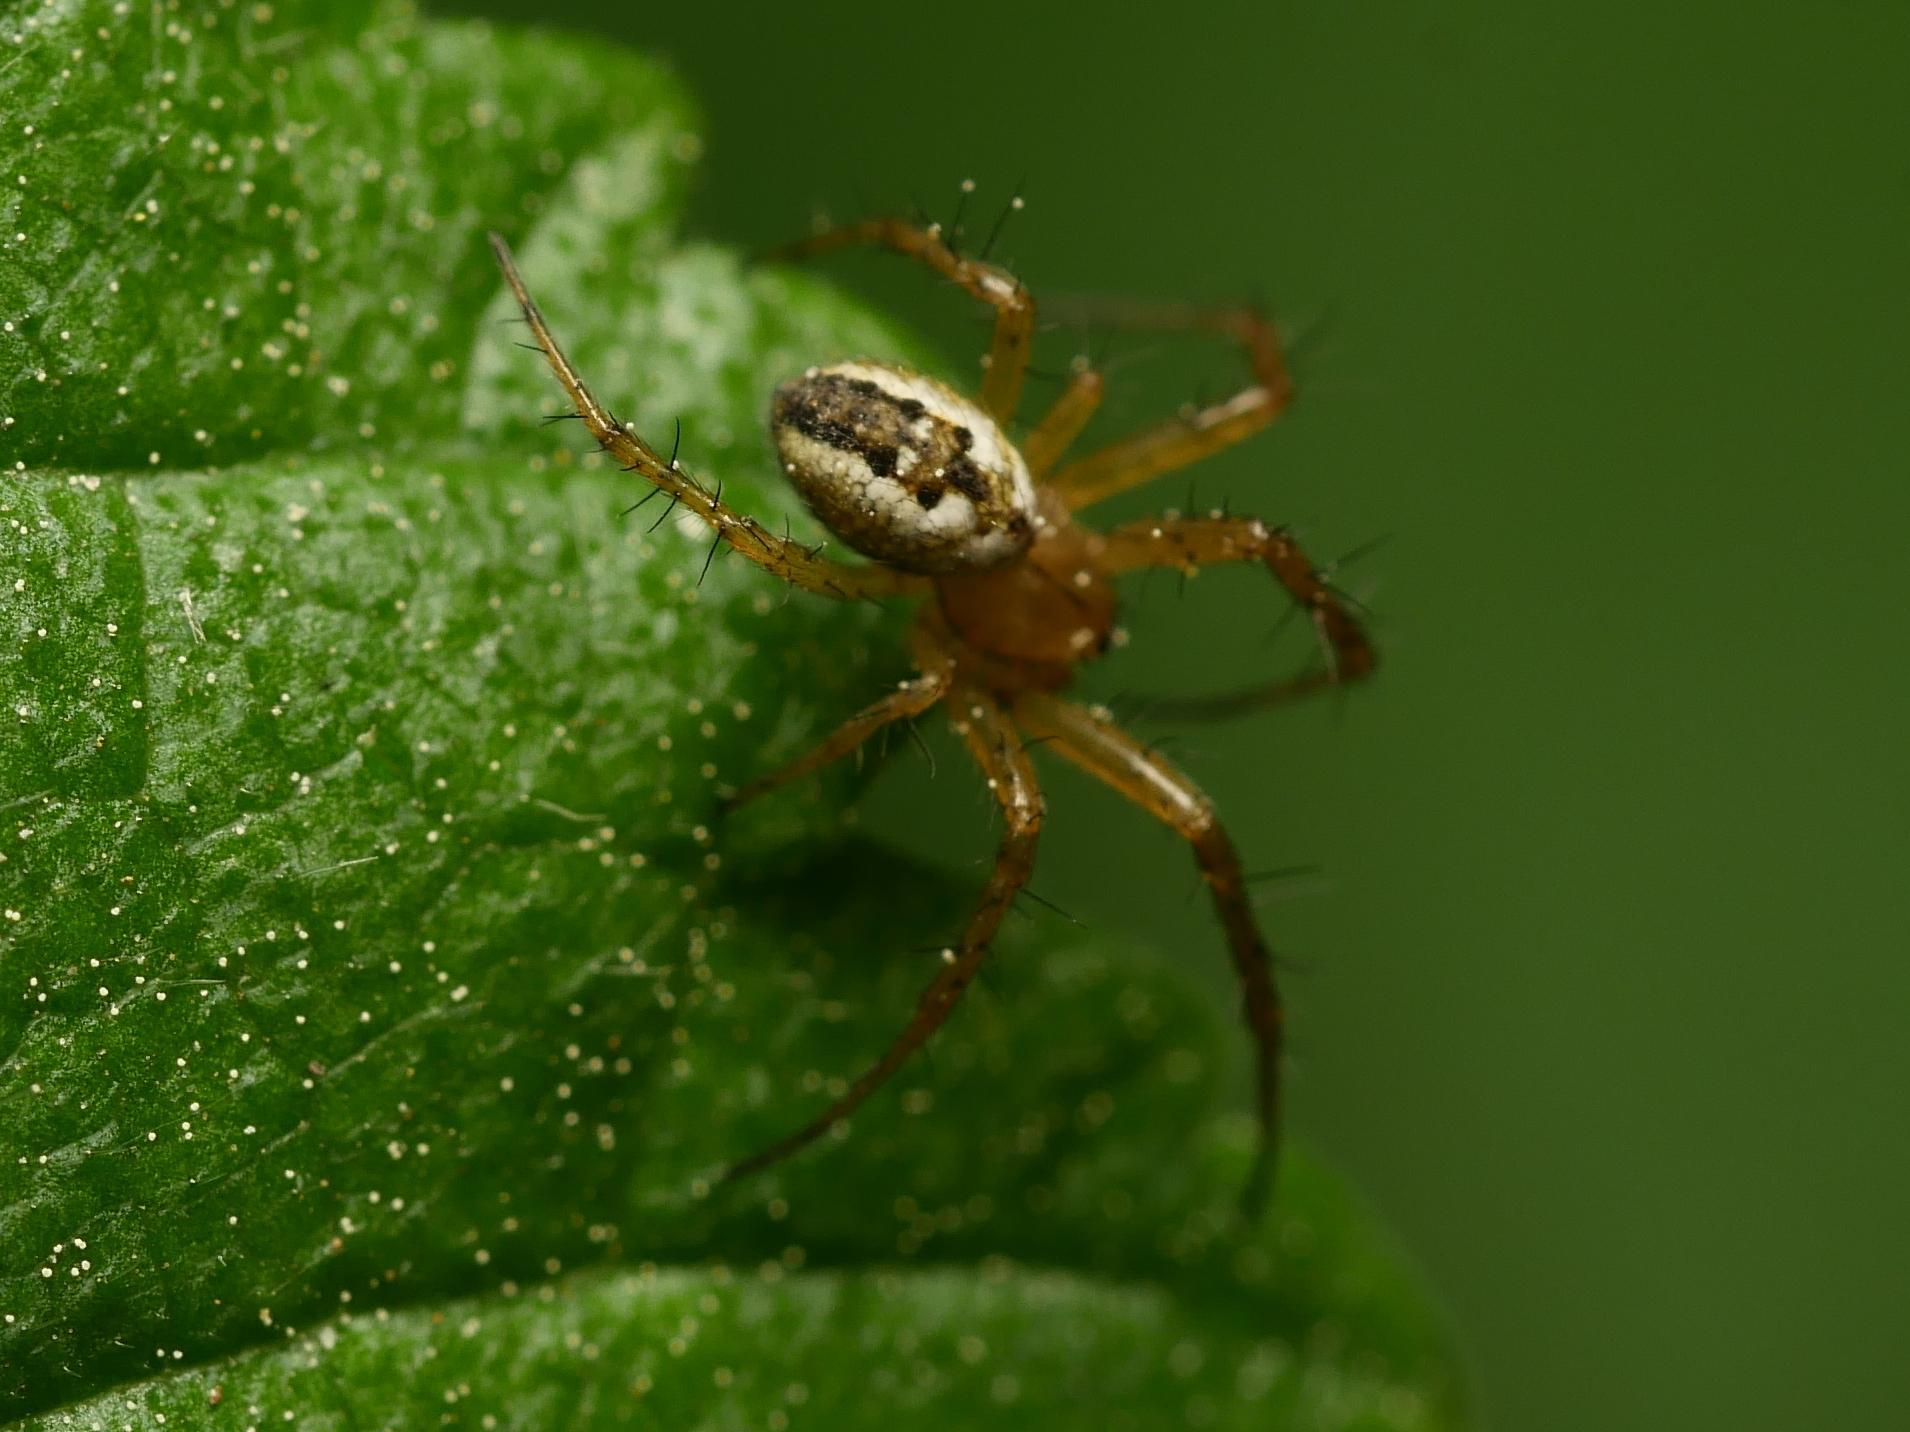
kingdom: Animalia
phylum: Arthropoda
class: Arachnida
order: Araneae
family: Araneidae
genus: Mangora
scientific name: Mangora acalypha
